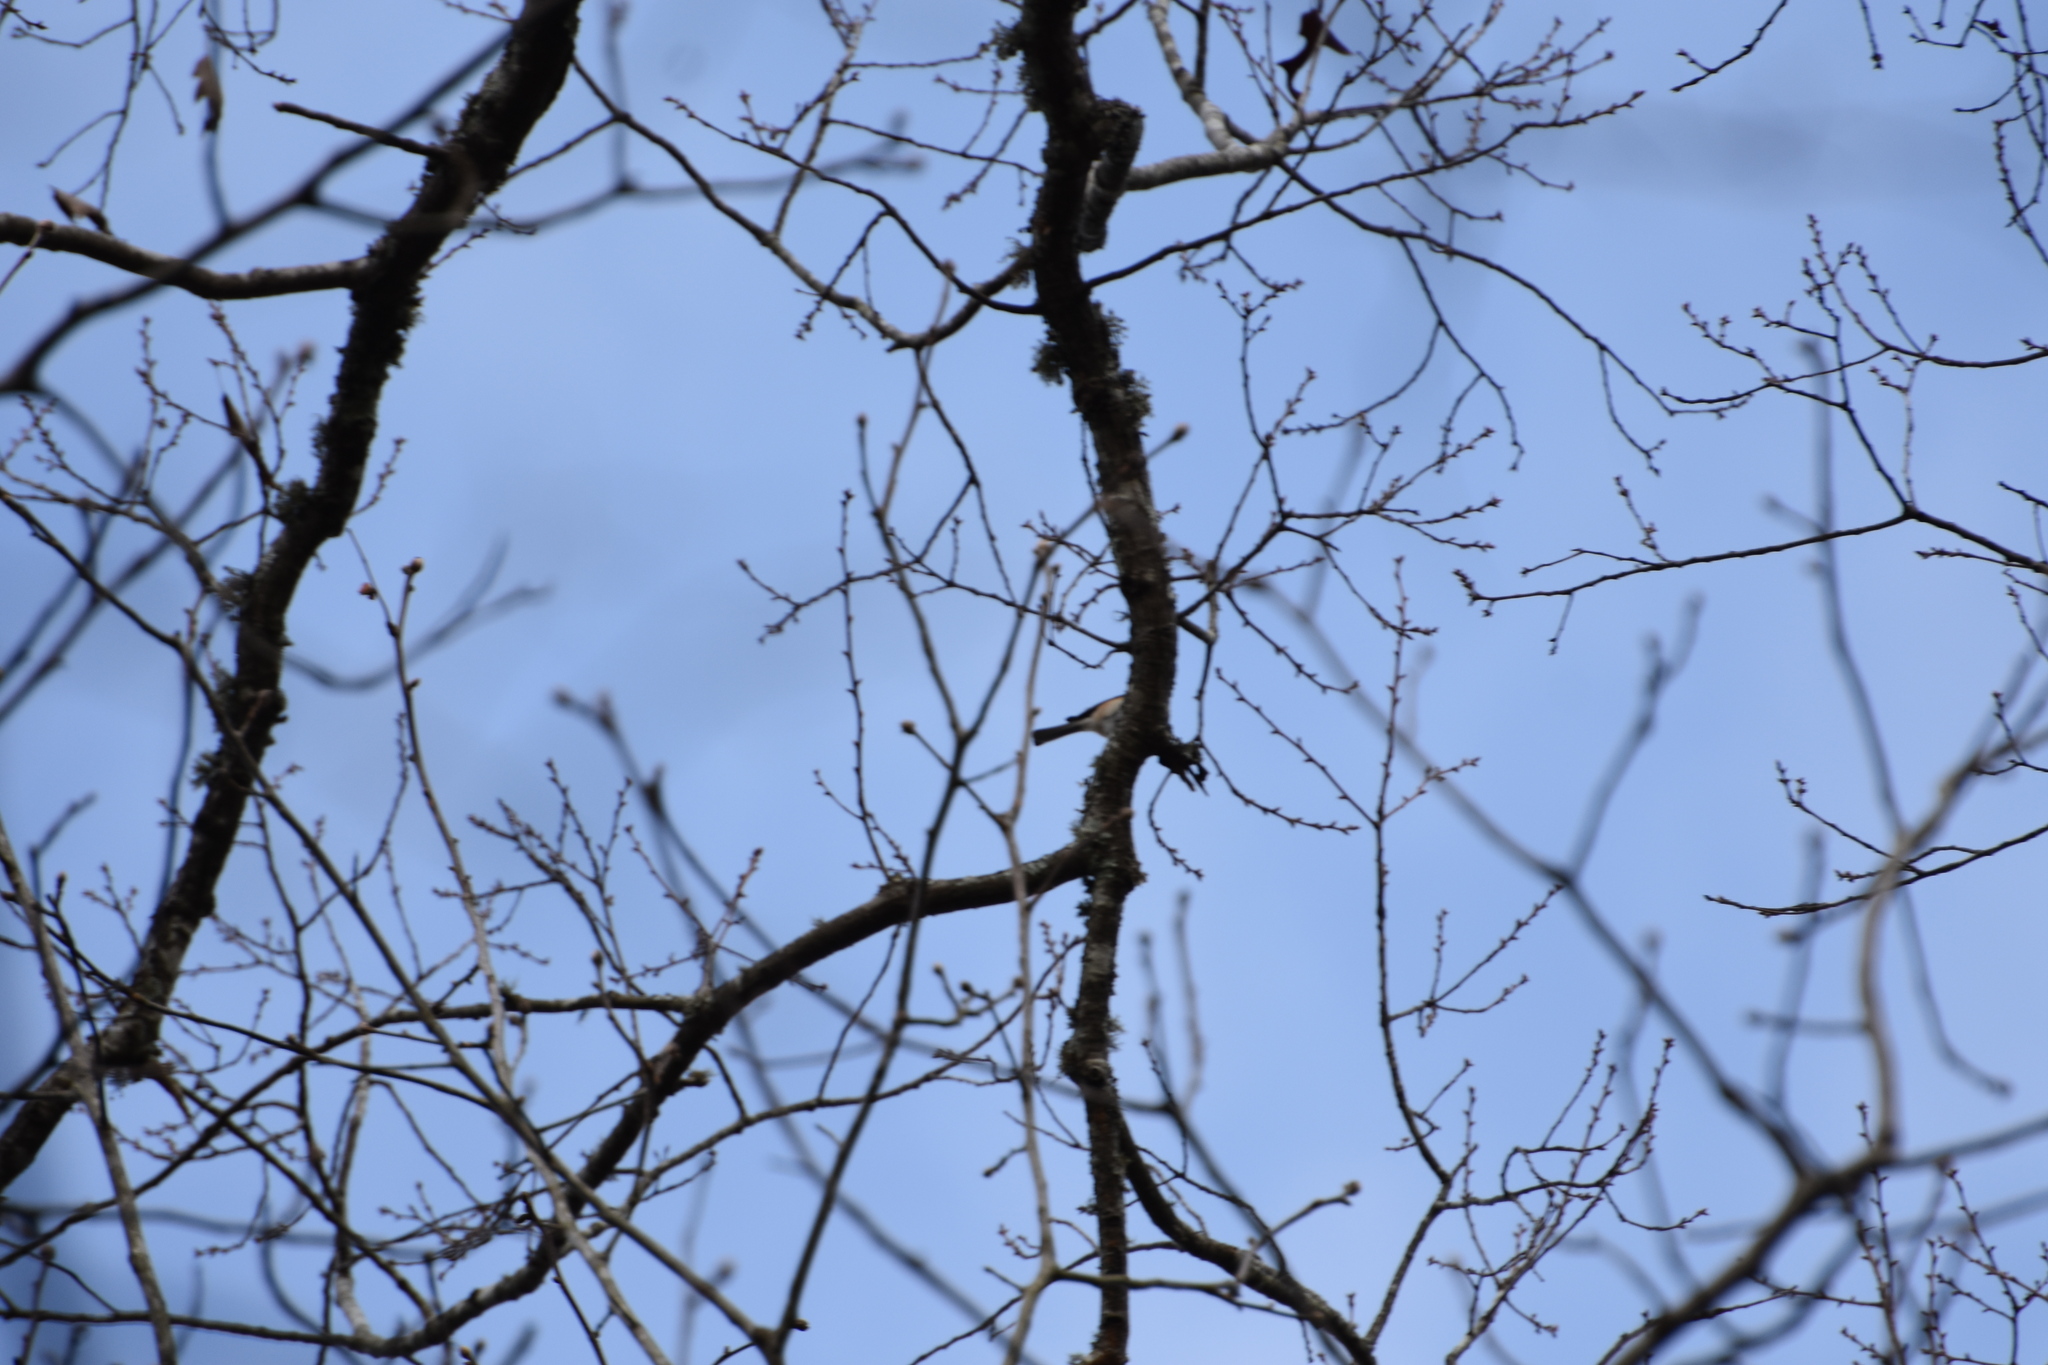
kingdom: Animalia
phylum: Chordata
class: Aves
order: Passeriformes
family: Paridae
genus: Baeolophus
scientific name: Baeolophus bicolor
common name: Tufted titmouse
